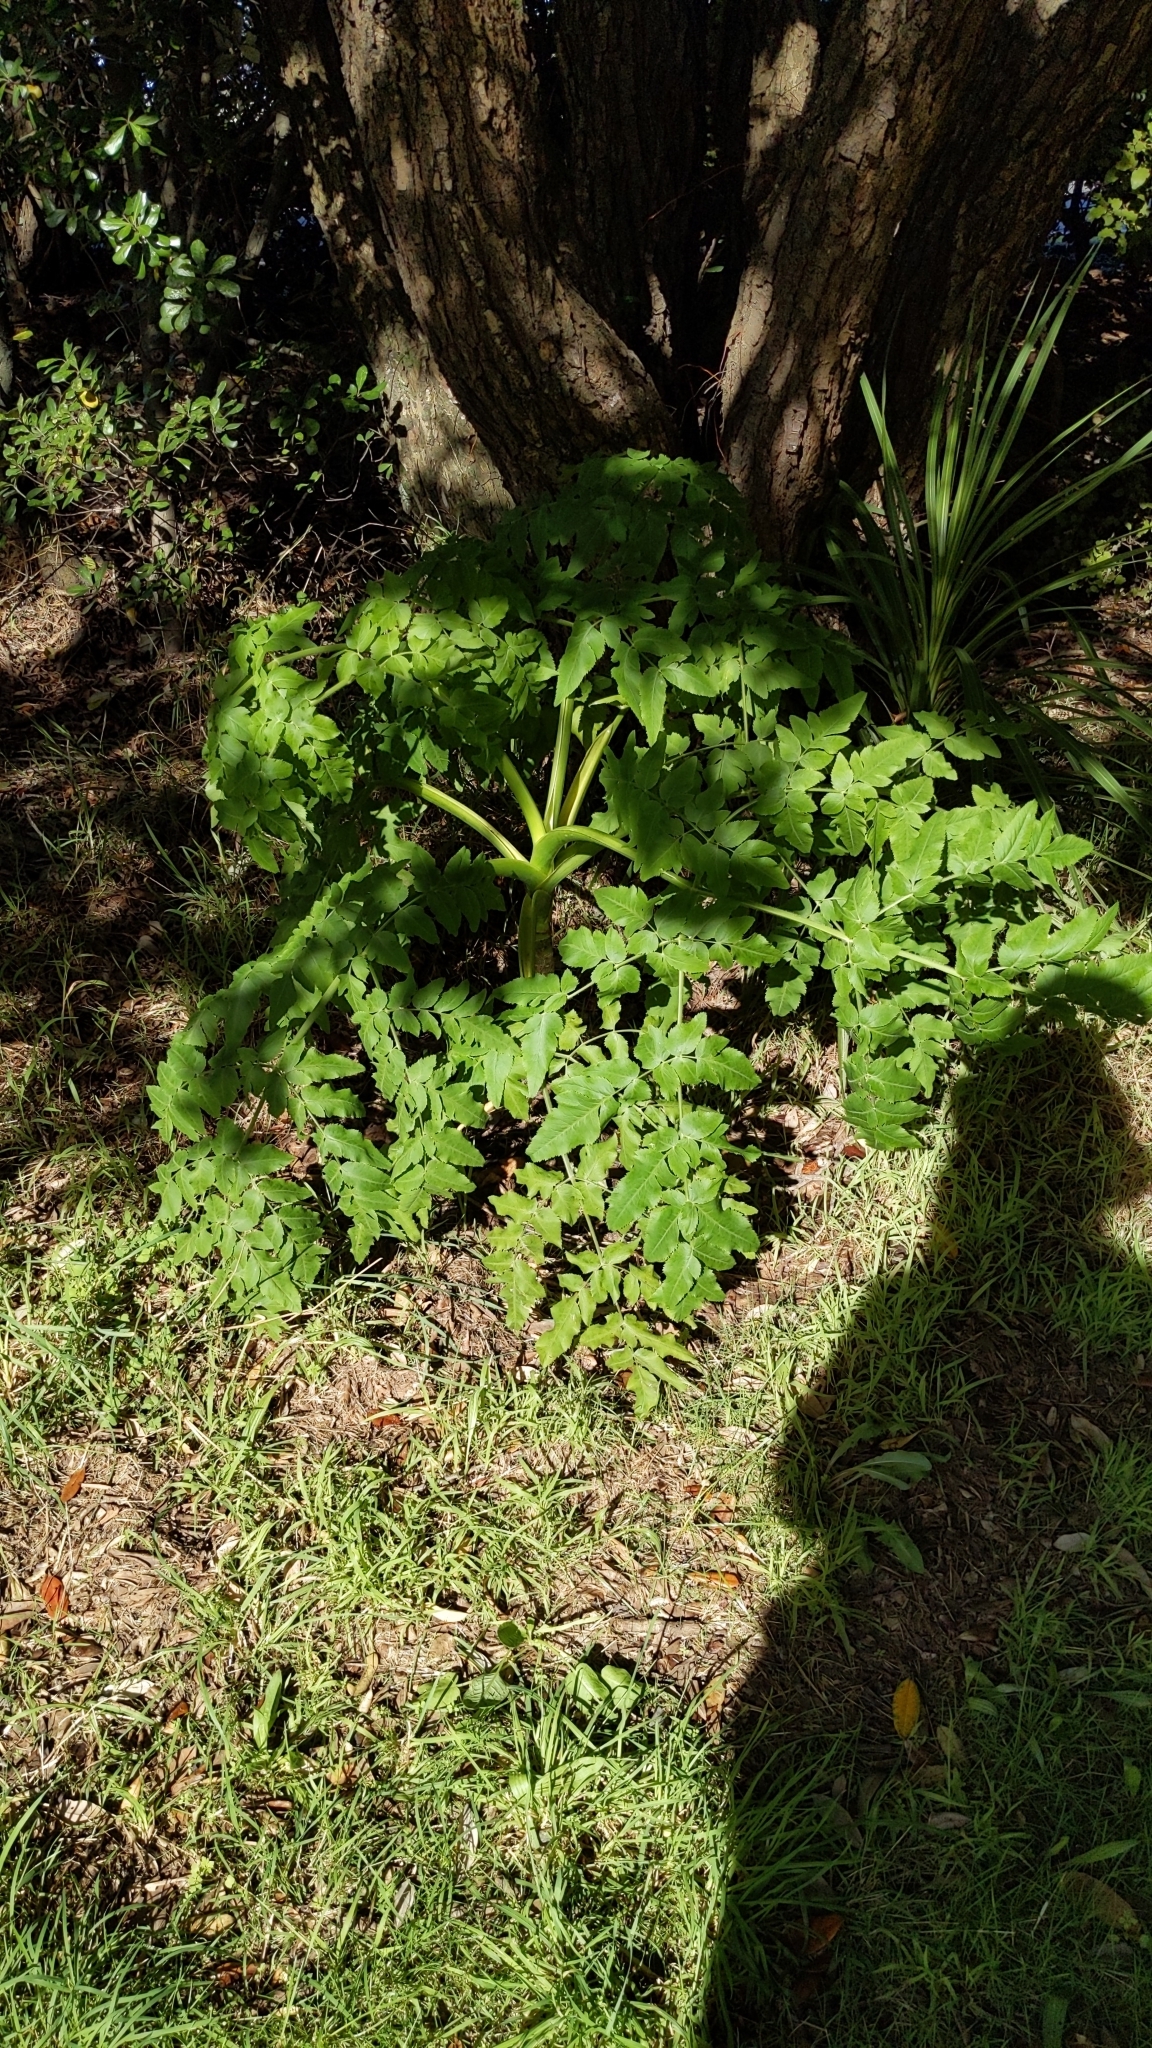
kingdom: Plantae
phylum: Tracheophyta
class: Magnoliopsida
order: Apiales
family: Apiaceae
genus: Daucus
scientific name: Daucus decipiens
